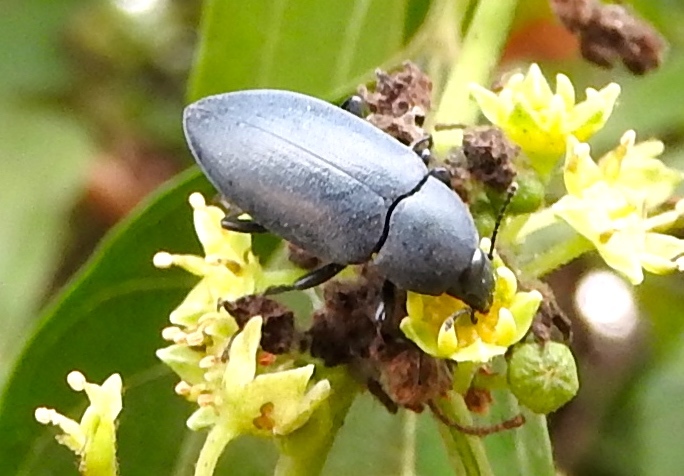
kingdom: Animalia
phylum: Arthropoda
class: Insecta
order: Coleoptera
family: Tenebrionidae
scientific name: Tenebrionidae
